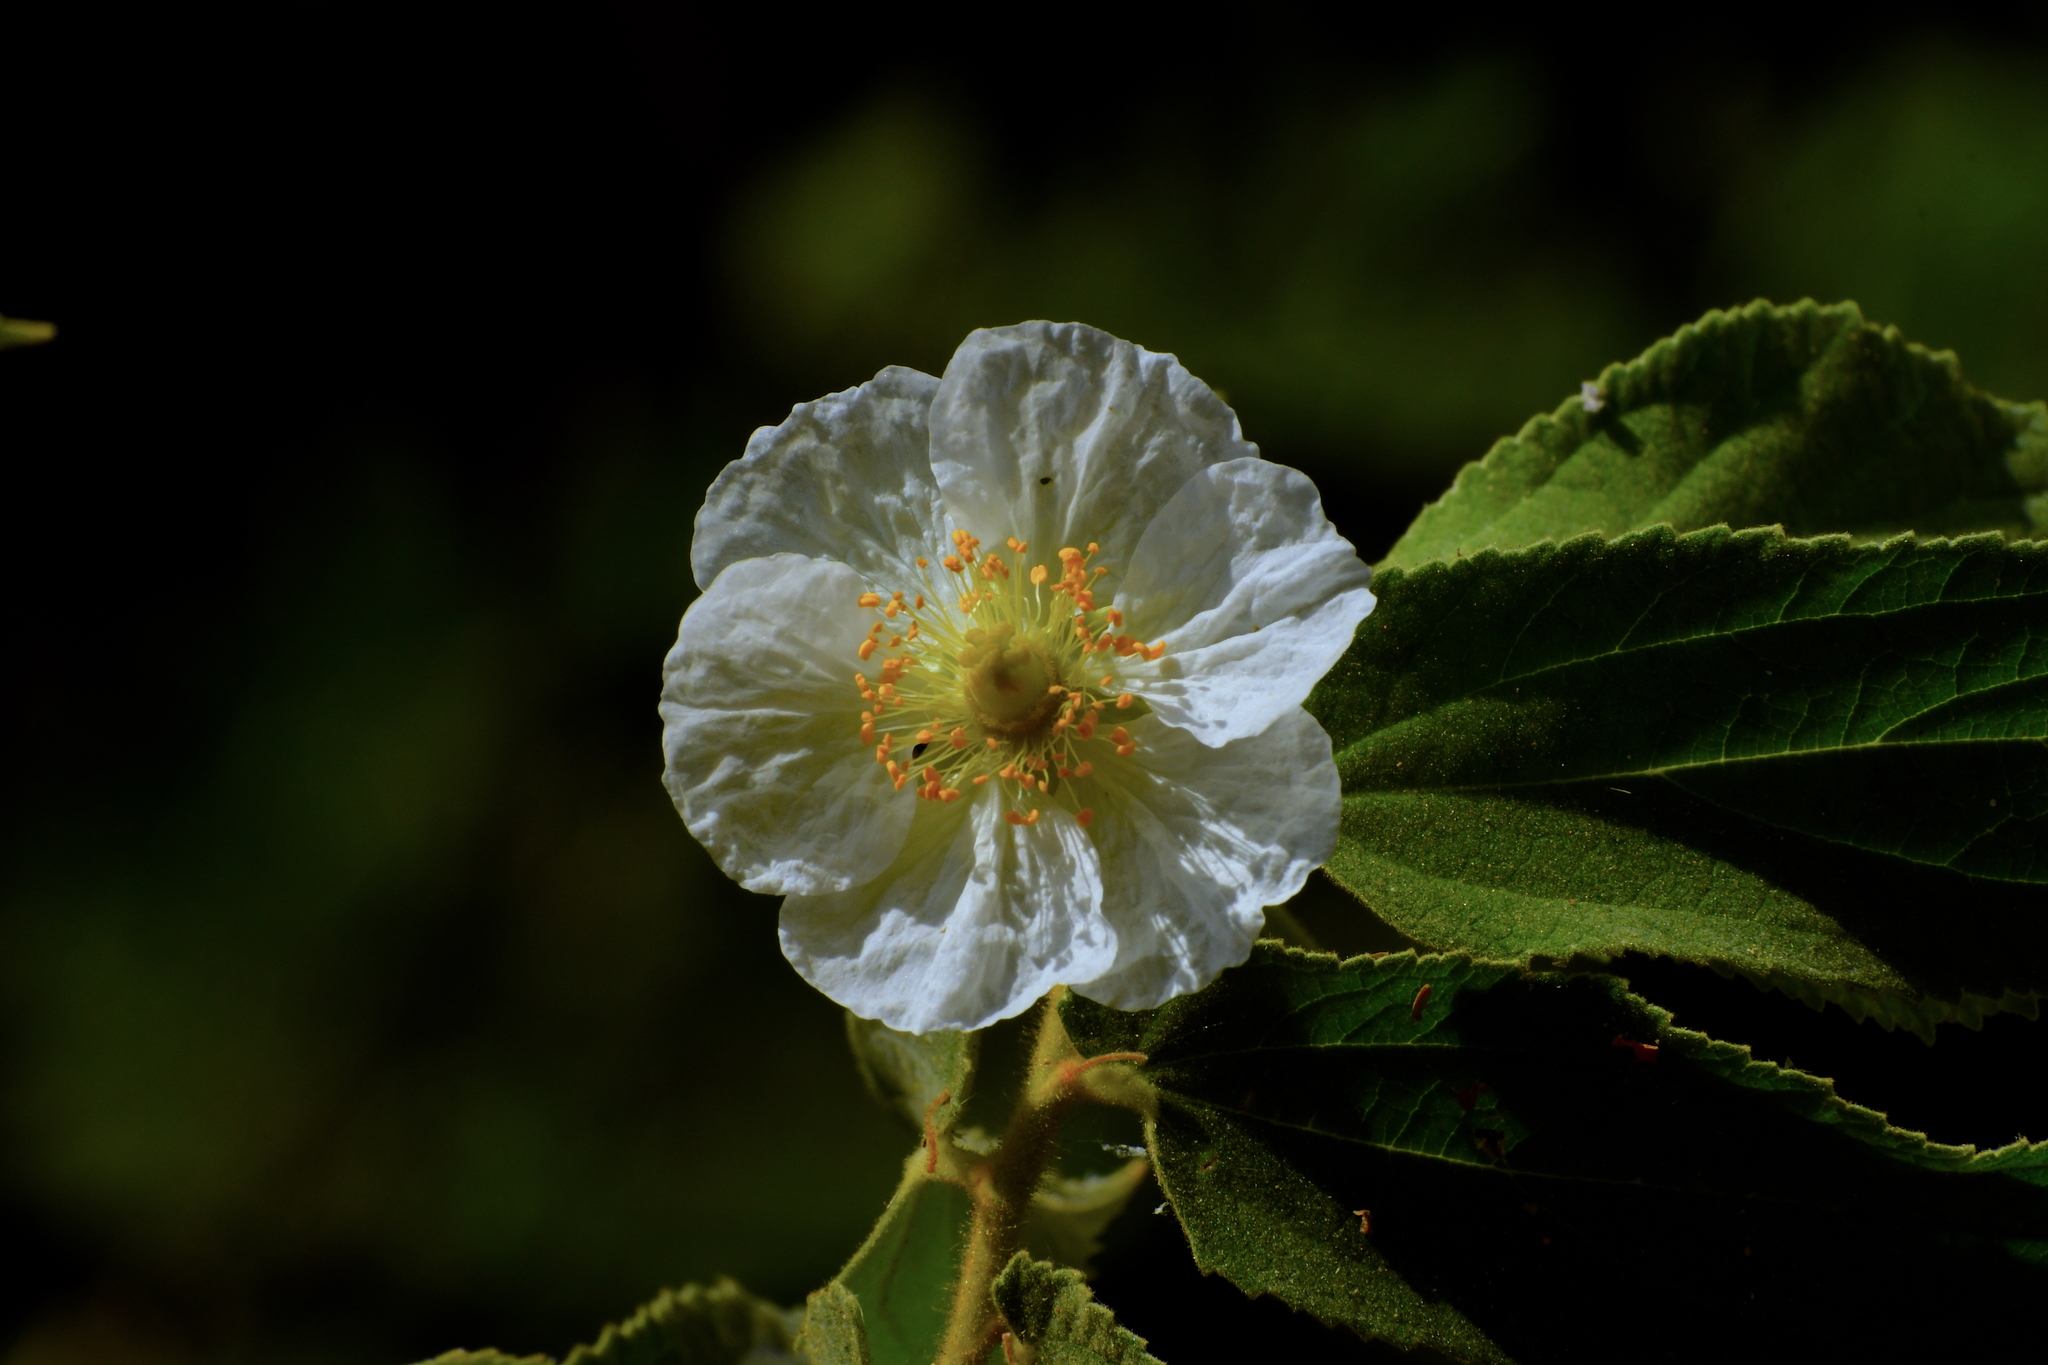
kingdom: Plantae
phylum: Tracheophyta
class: Magnoliopsida
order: Malvales
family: Muntingiaceae
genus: Muntingia
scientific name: Muntingia calabura
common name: Strawberrytree
